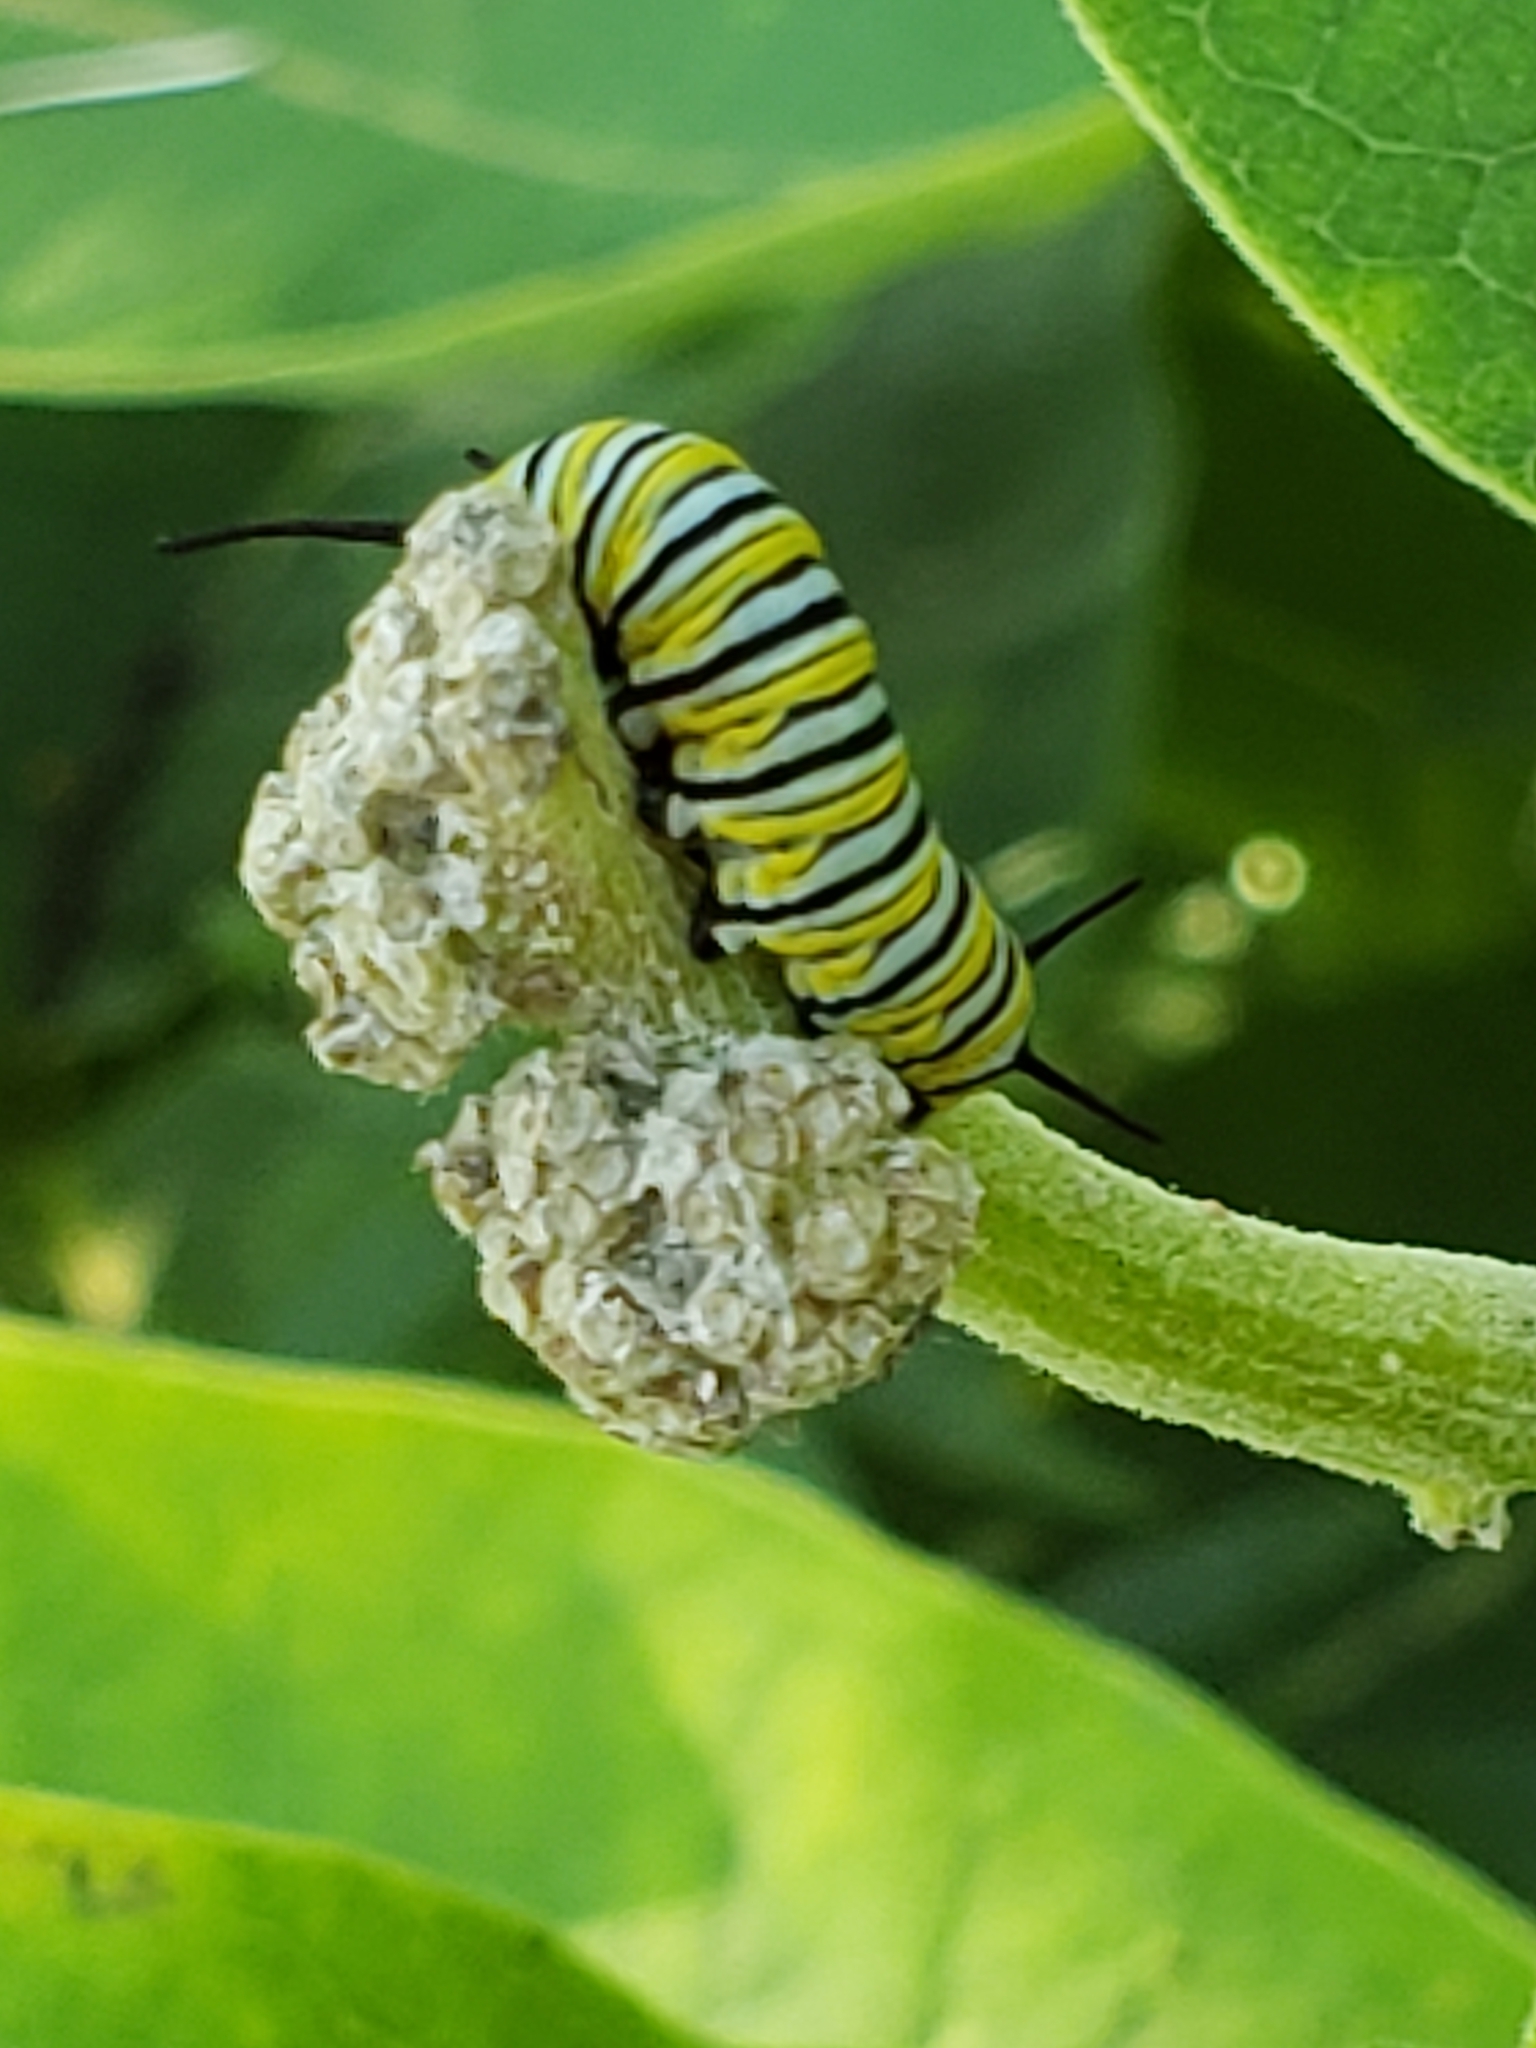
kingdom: Animalia
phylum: Arthropoda
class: Insecta
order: Lepidoptera
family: Nymphalidae
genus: Danaus
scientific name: Danaus plexippus
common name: Monarch
